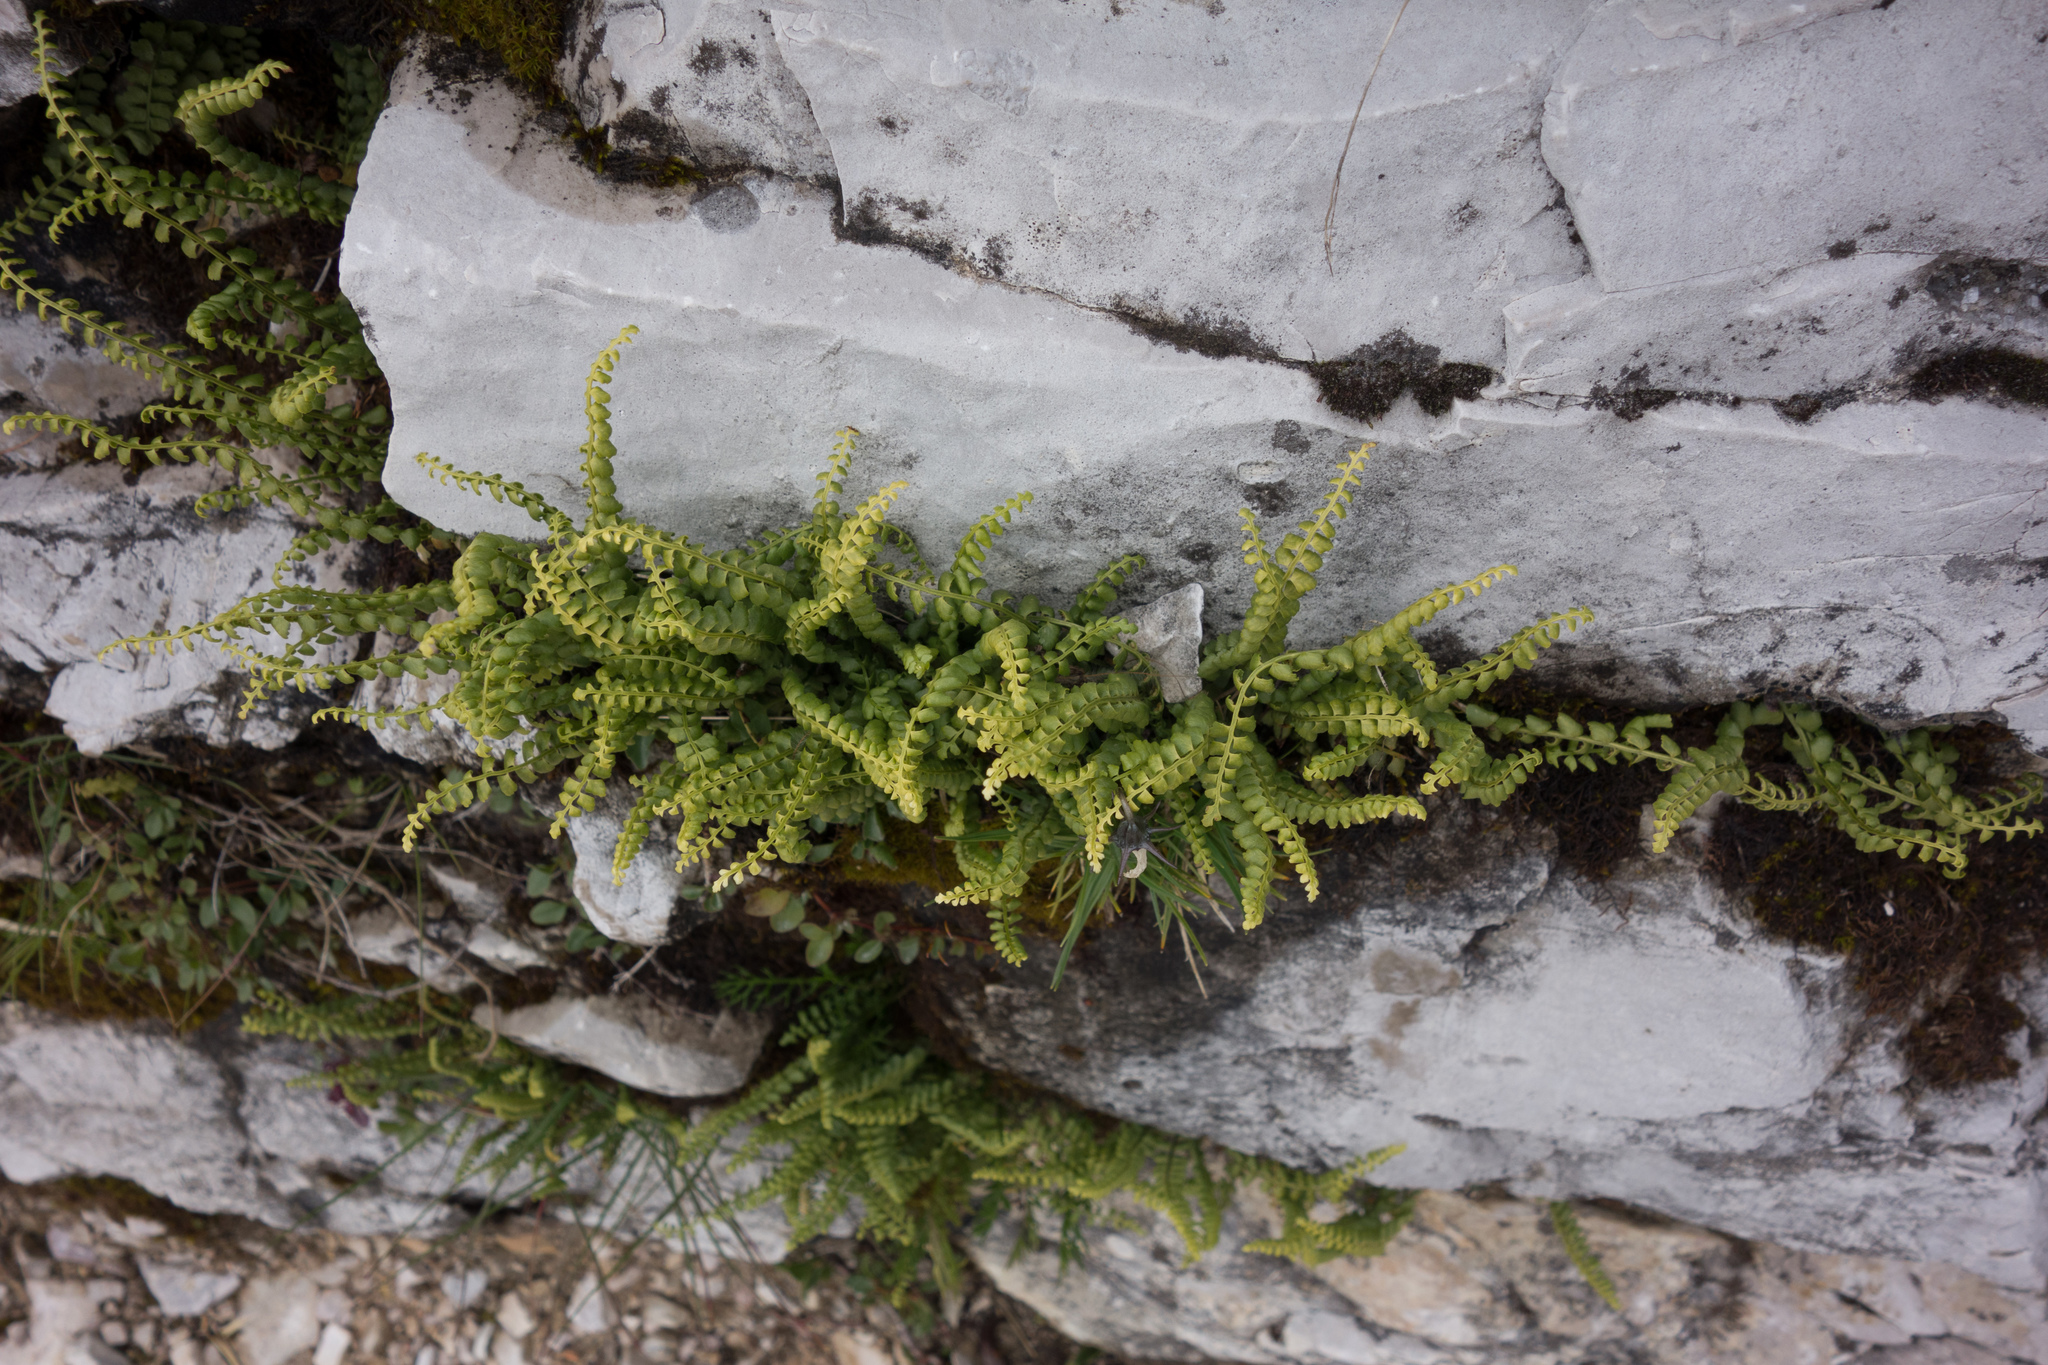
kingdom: Plantae
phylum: Tracheophyta
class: Polypodiopsida
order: Polypodiales
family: Aspleniaceae
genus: Asplenium
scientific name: Asplenium viride
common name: Green spleenwort
